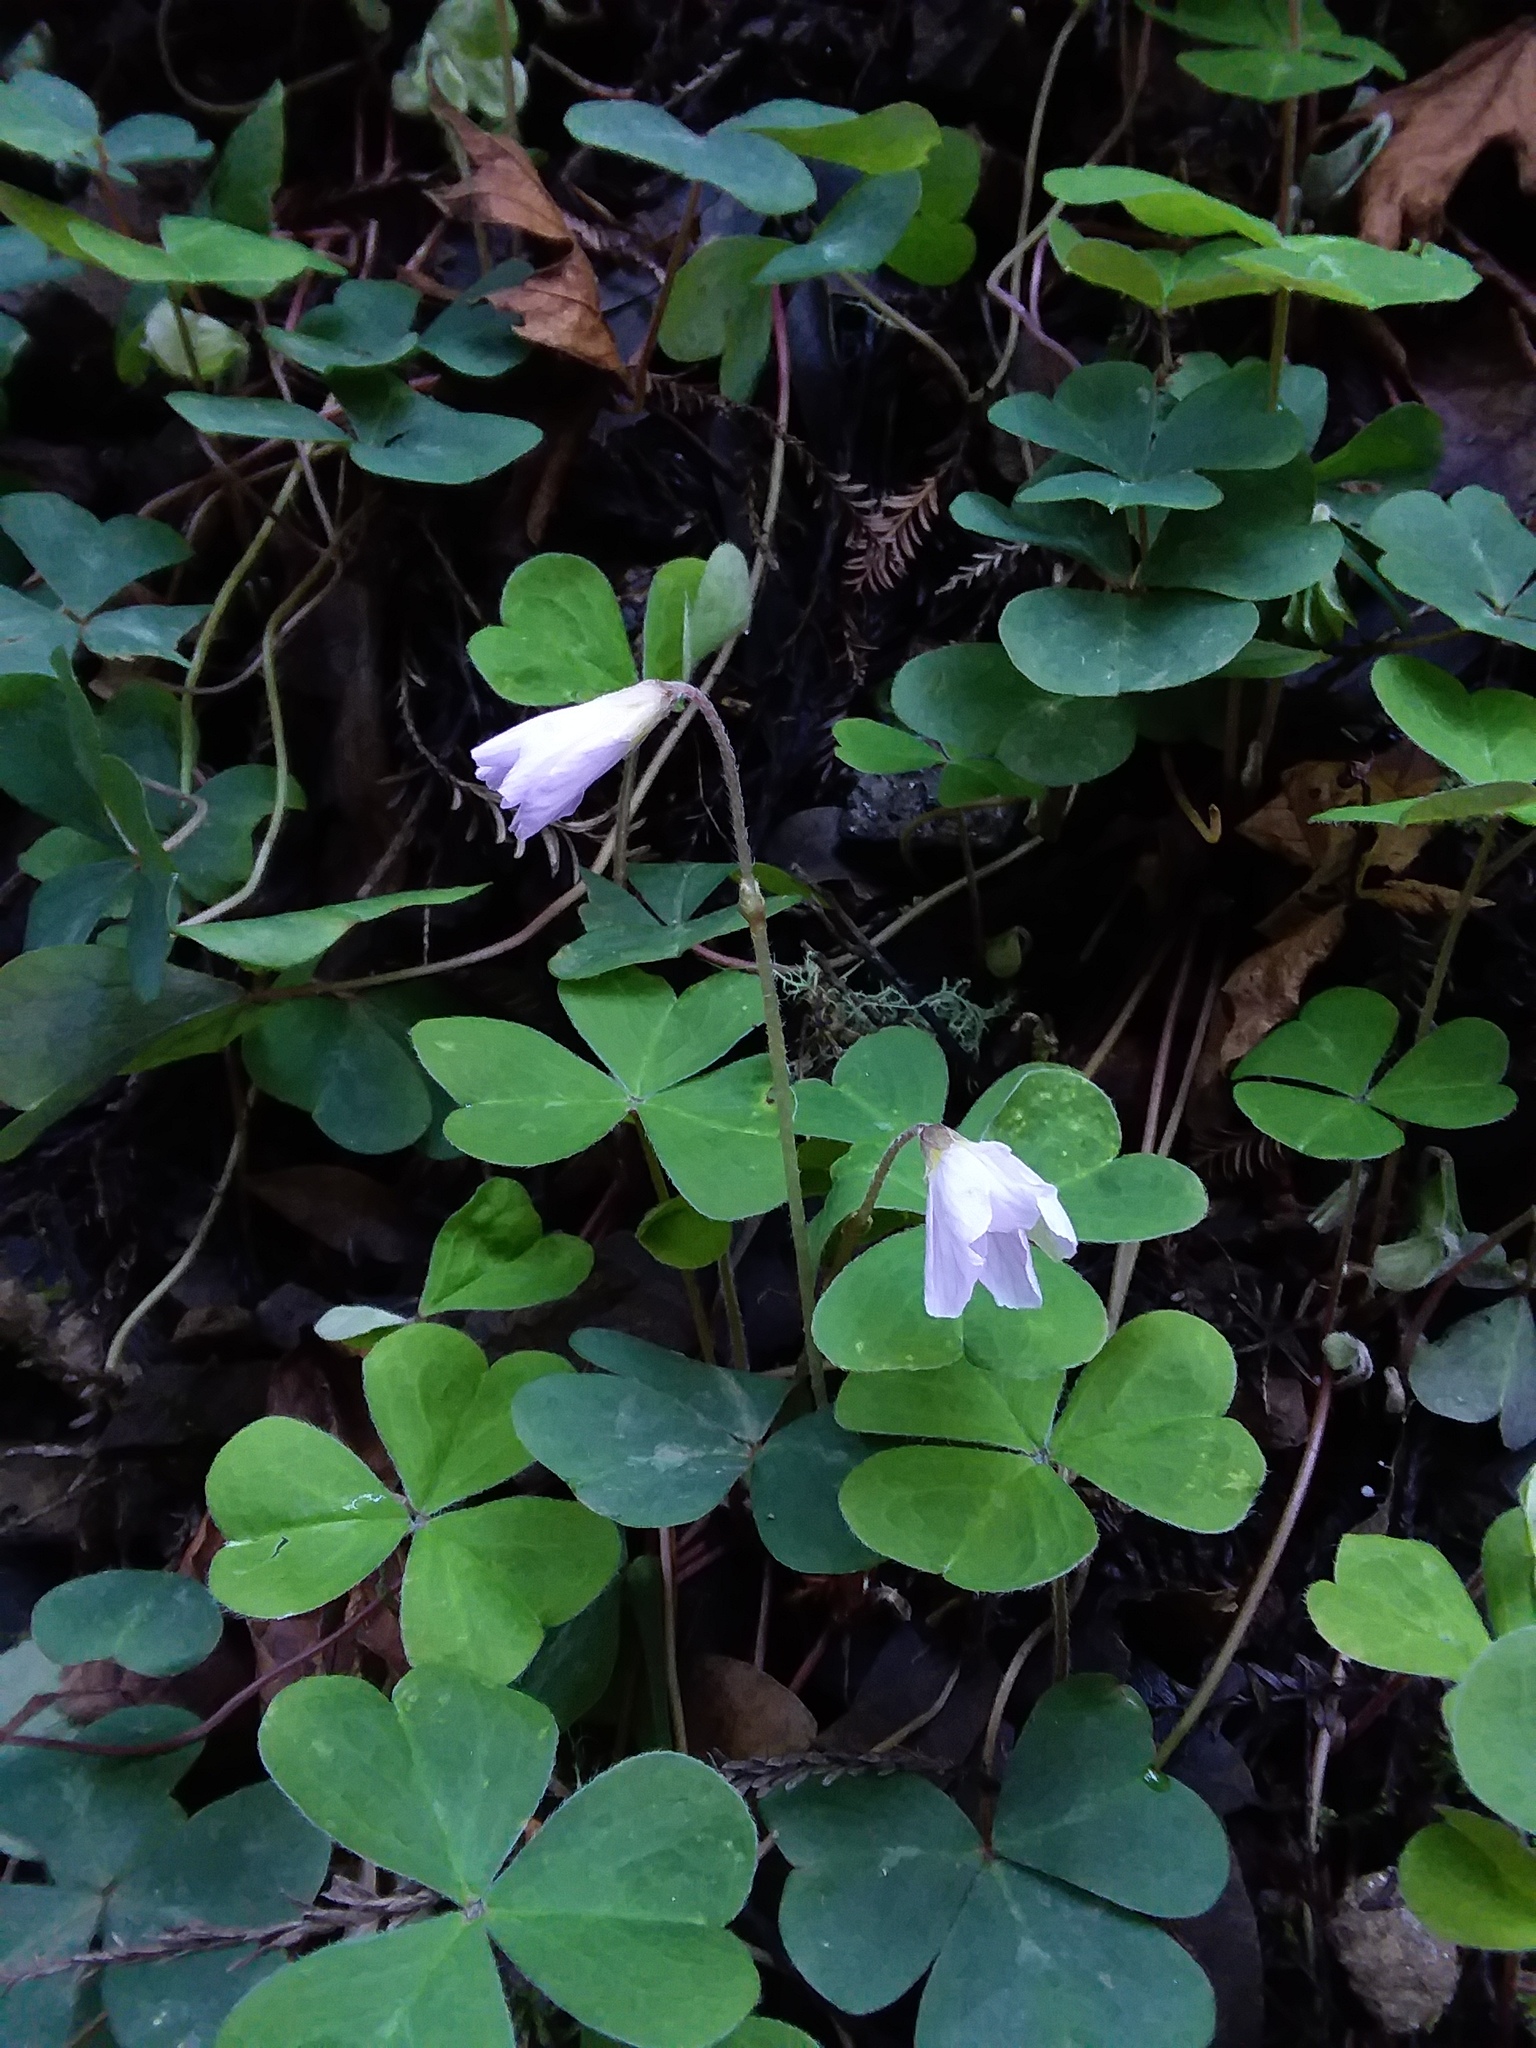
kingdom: Plantae
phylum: Tracheophyta
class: Magnoliopsida
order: Oxalidales
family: Oxalidaceae
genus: Oxalis
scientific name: Oxalis oregana
